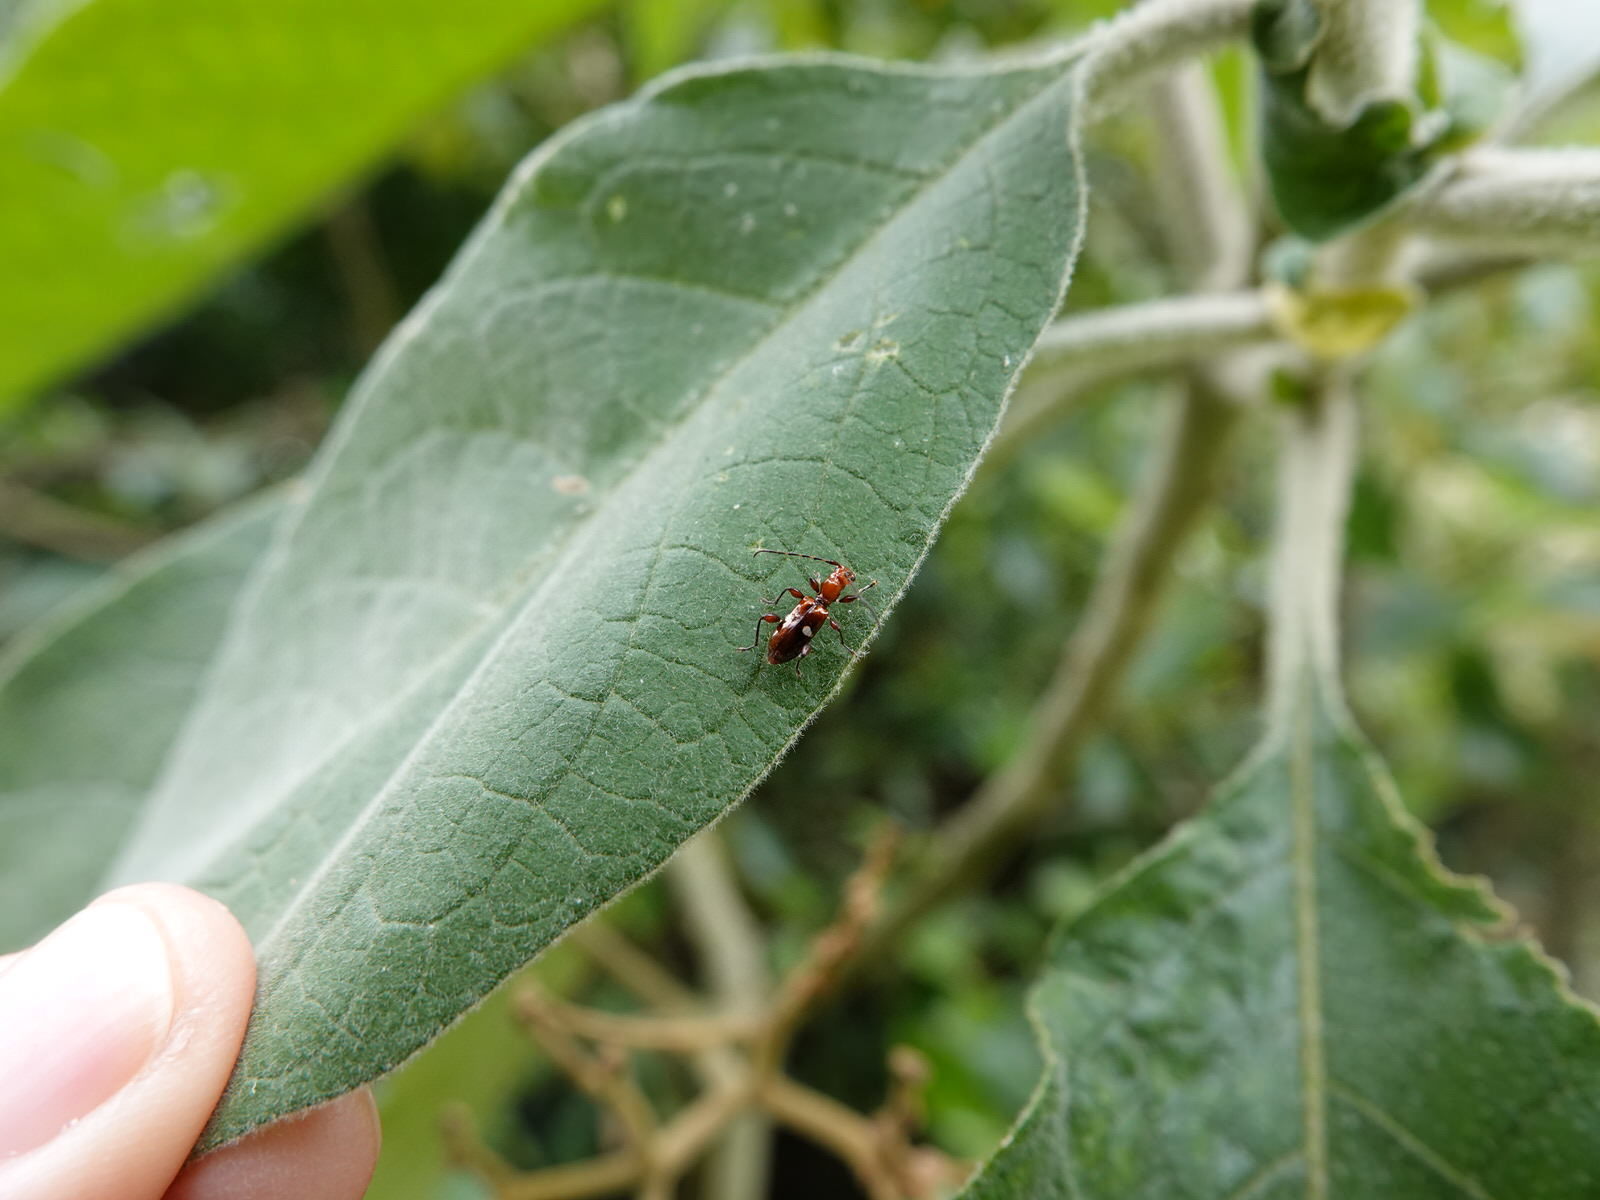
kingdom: Animalia
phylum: Arthropoda
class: Insecta
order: Coleoptera
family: Cerambycidae
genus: Zorion
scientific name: Zorion batesi
